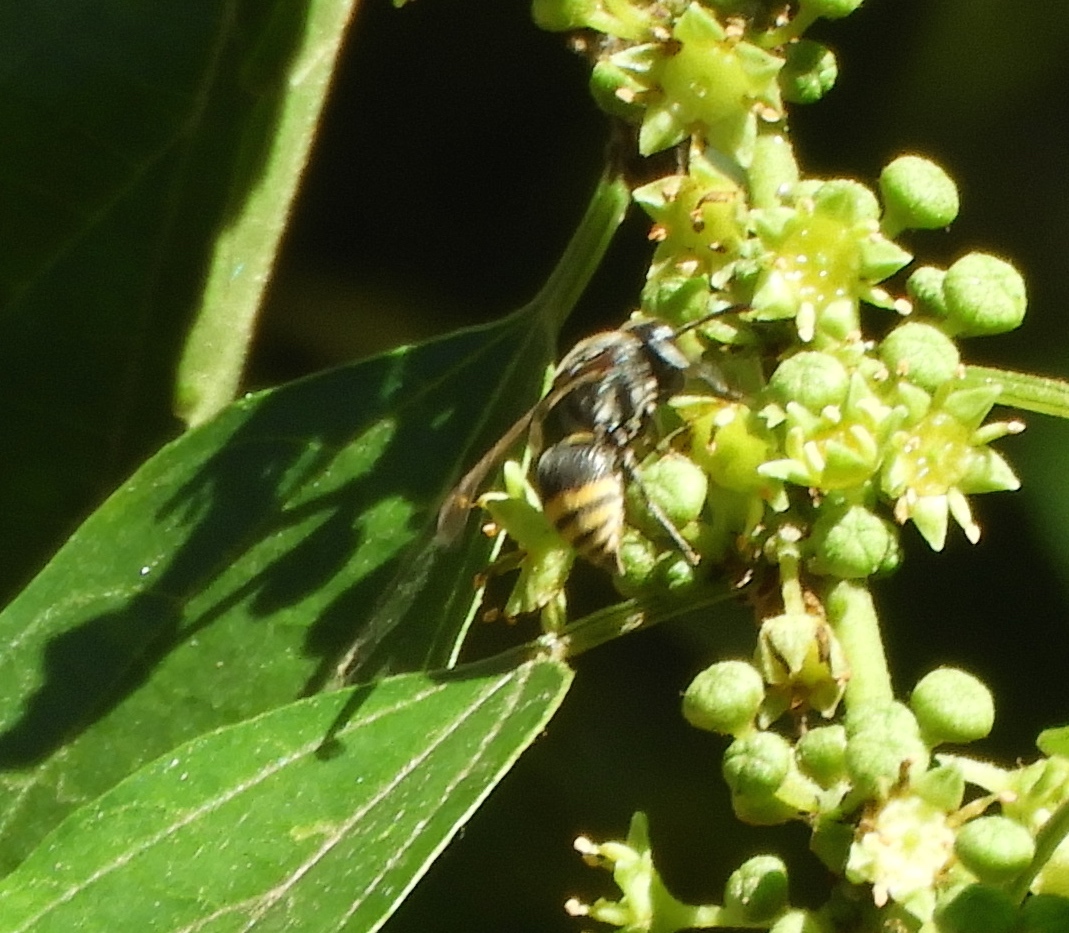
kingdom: Animalia
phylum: Arthropoda
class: Insecta
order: Hymenoptera
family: Vespidae
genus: Brachygastra
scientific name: Brachygastra azteca
